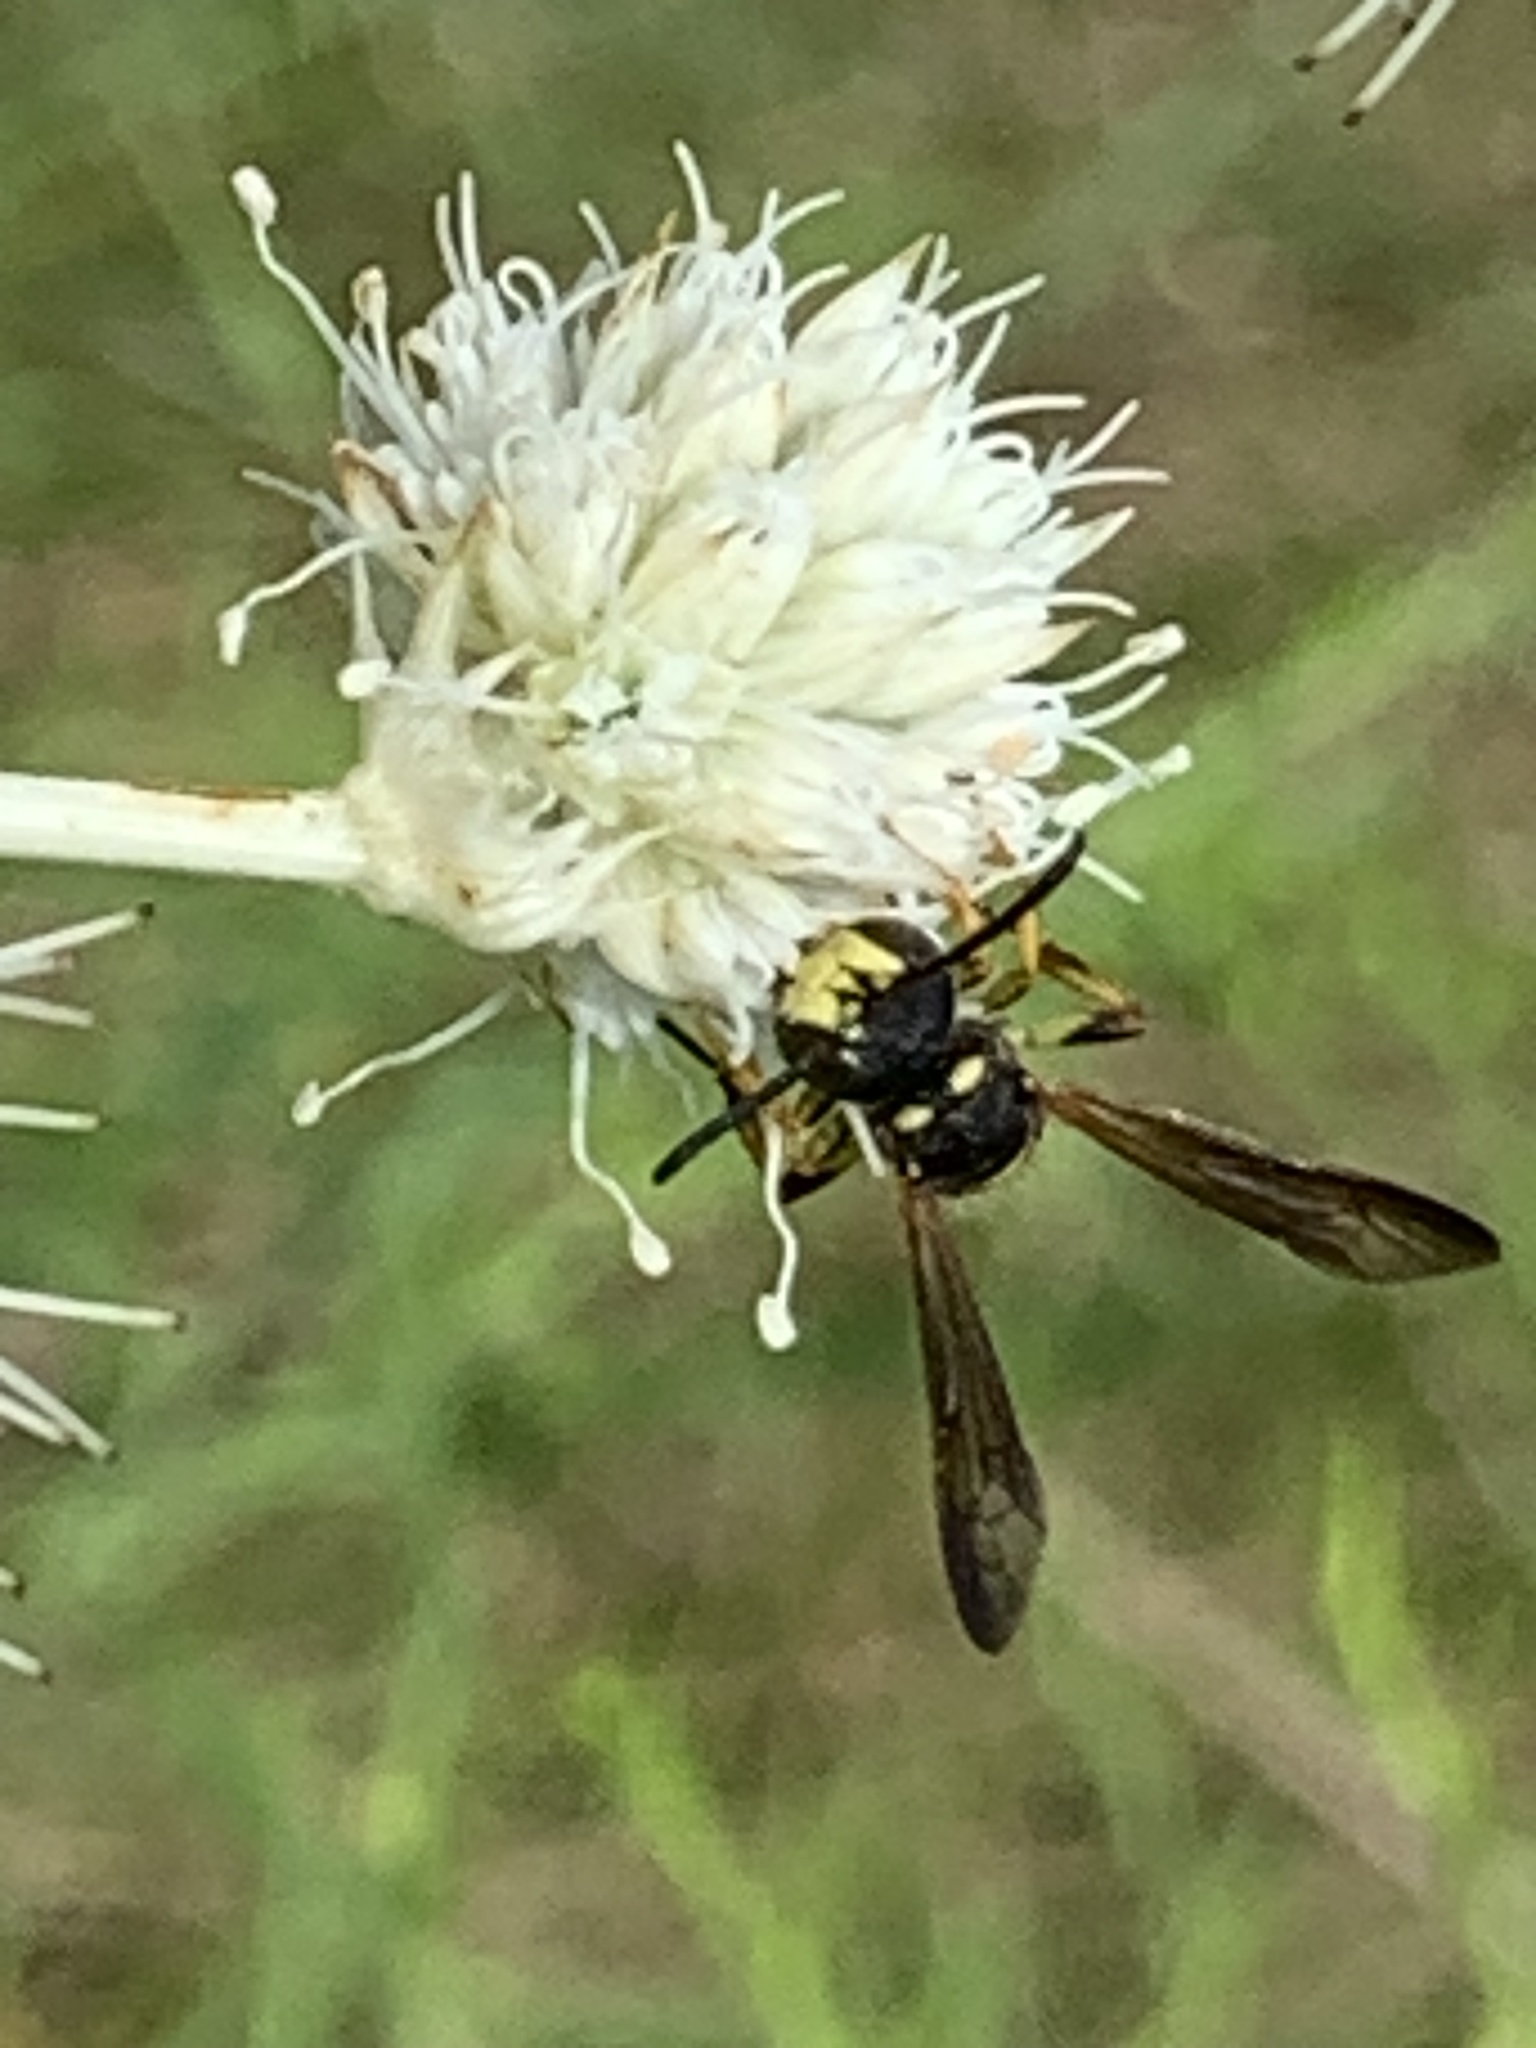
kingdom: Animalia
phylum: Arthropoda
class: Insecta
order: Hymenoptera
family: Crabronidae
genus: Cerceris
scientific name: Cerceris
